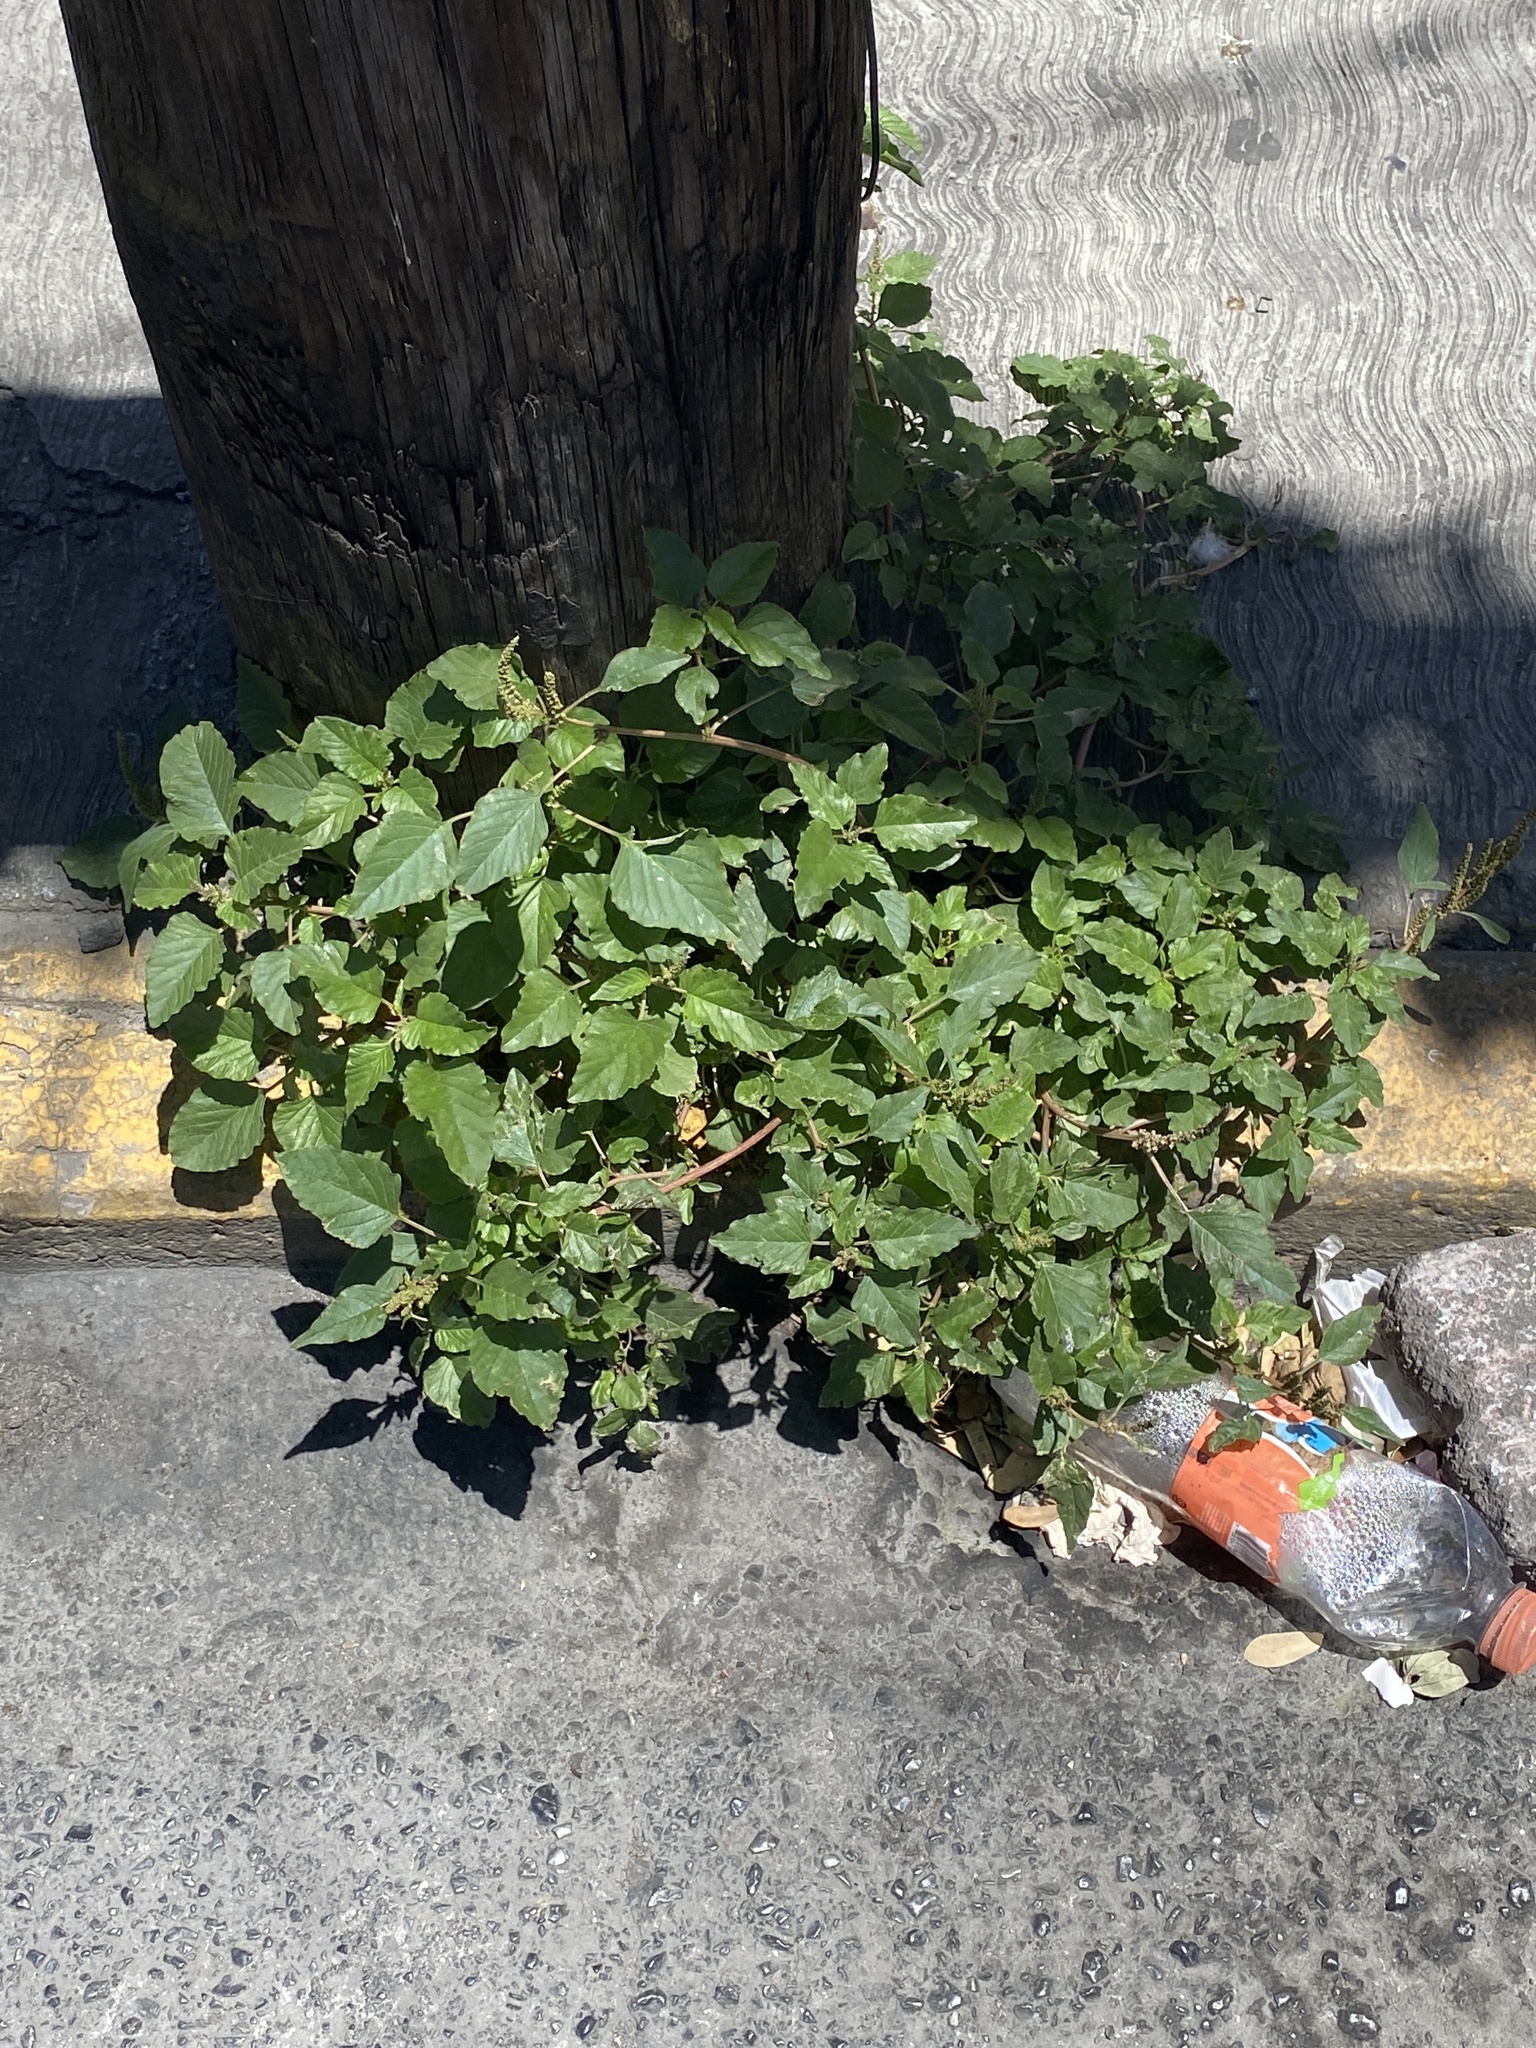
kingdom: Plantae
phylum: Tracheophyta
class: Magnoliopsida
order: Caryophyllales
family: Phytolaccaceae
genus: Rivina
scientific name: Rivina humilis
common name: Rougeplant
